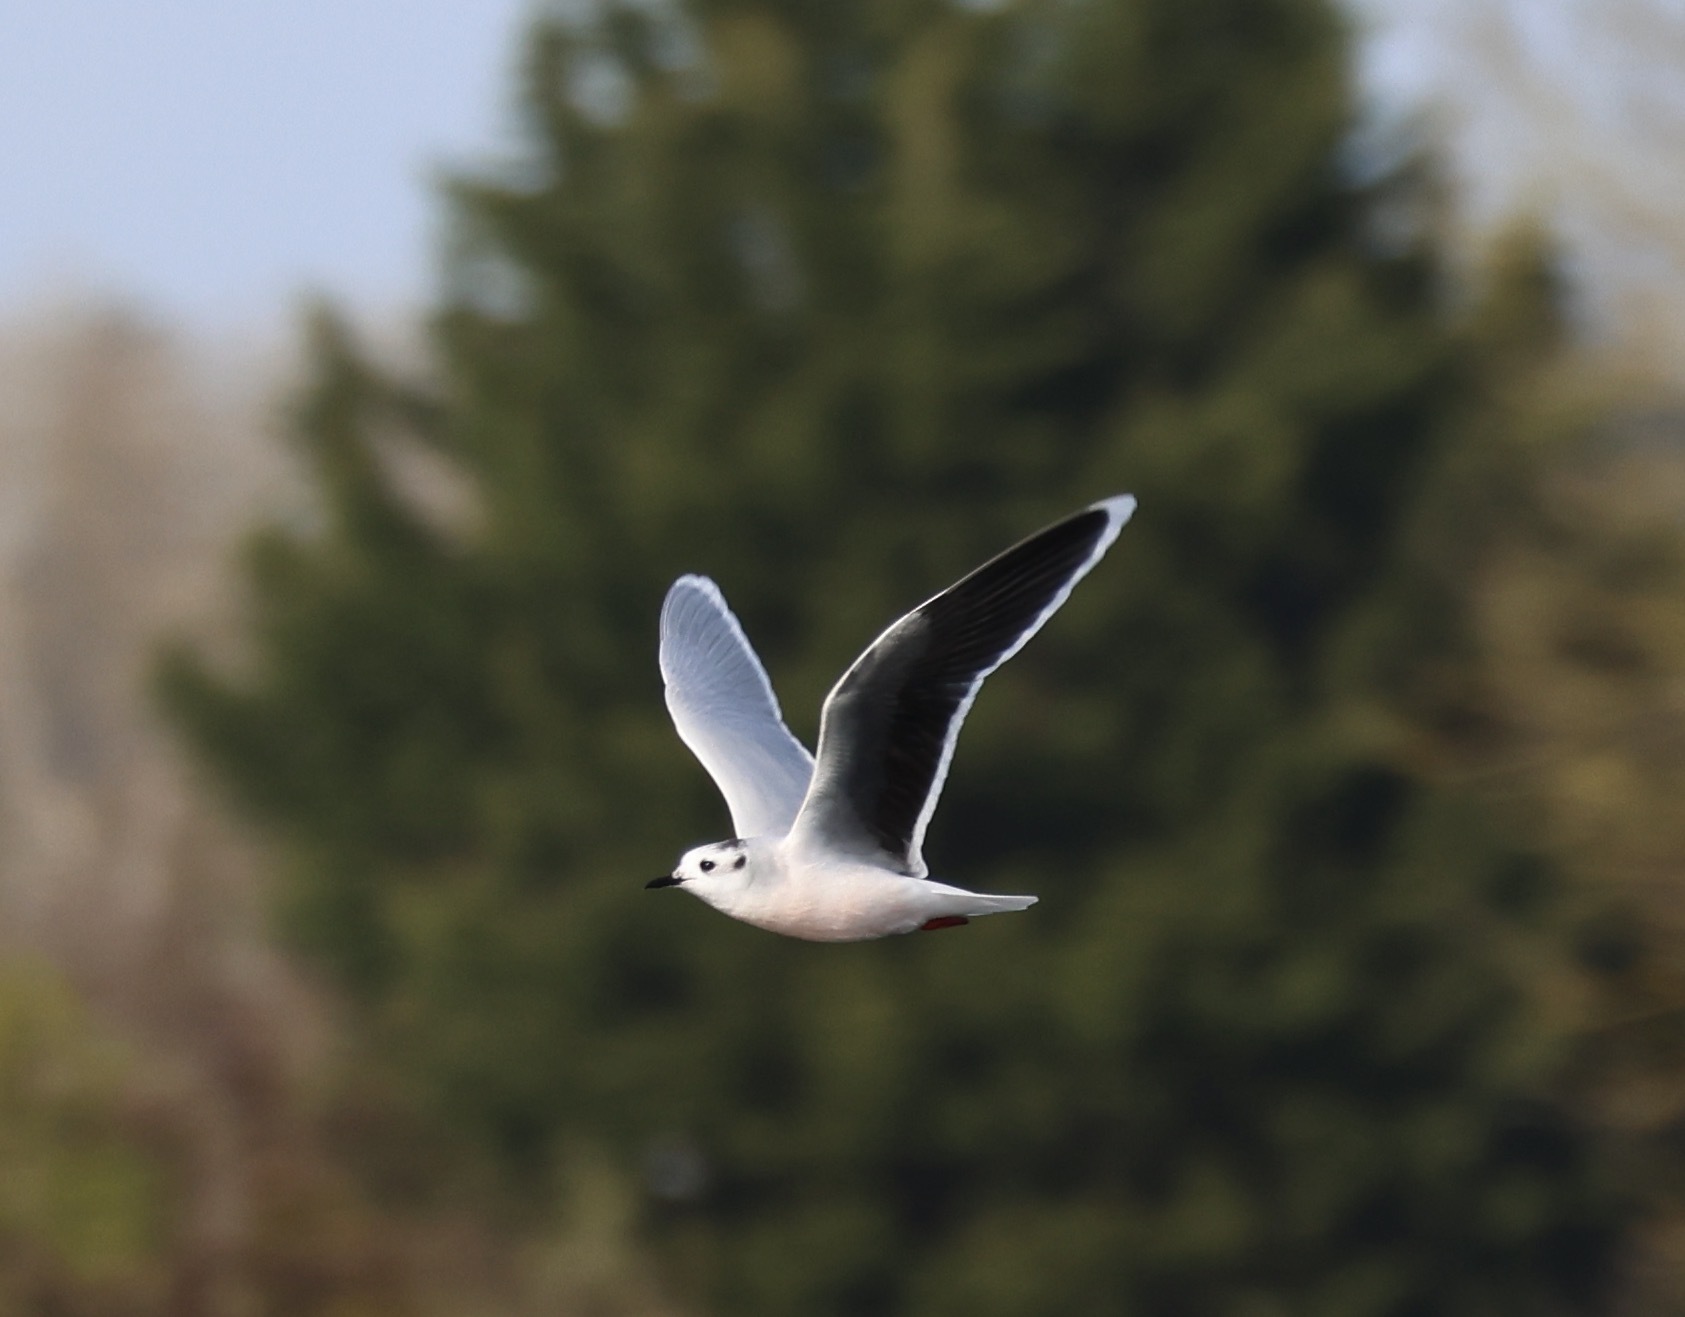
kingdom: Animalia
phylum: Chordata
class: Aves
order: Charadriiformes
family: Laridae
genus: Hydrocoloeus
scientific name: Hydrocoloeus minutus
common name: Little gull
